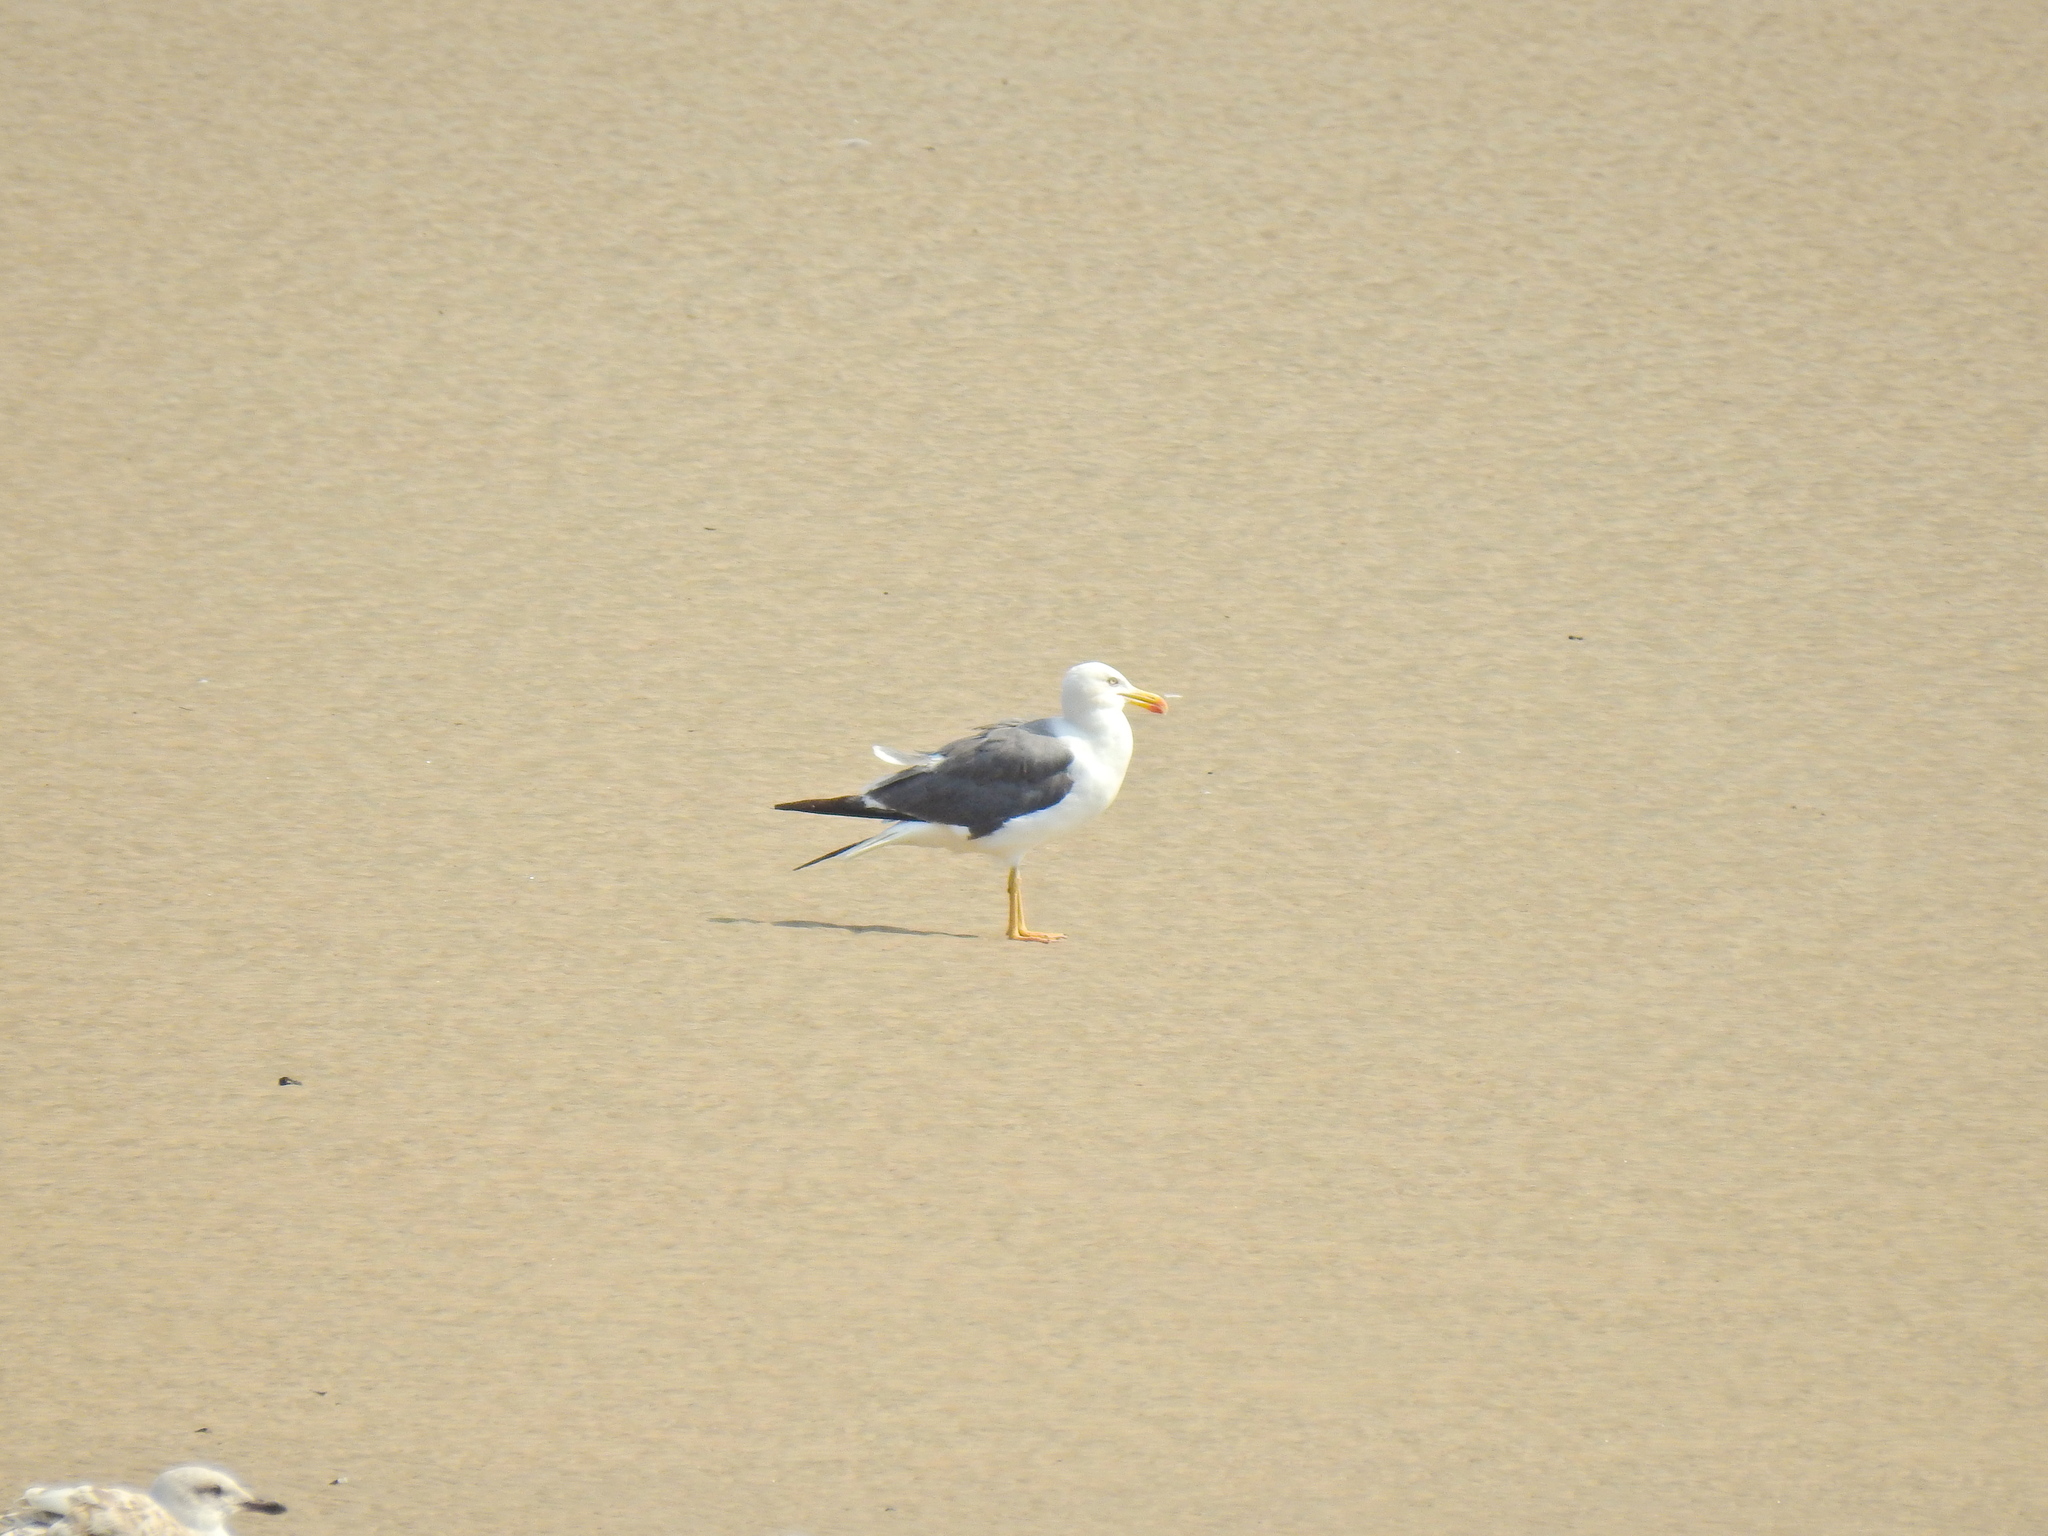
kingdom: Animalia
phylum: Chordata
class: Aves
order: Charadriiformes
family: Laridae
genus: Larus
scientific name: Larus fuscus
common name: Lesser black-backed gull
